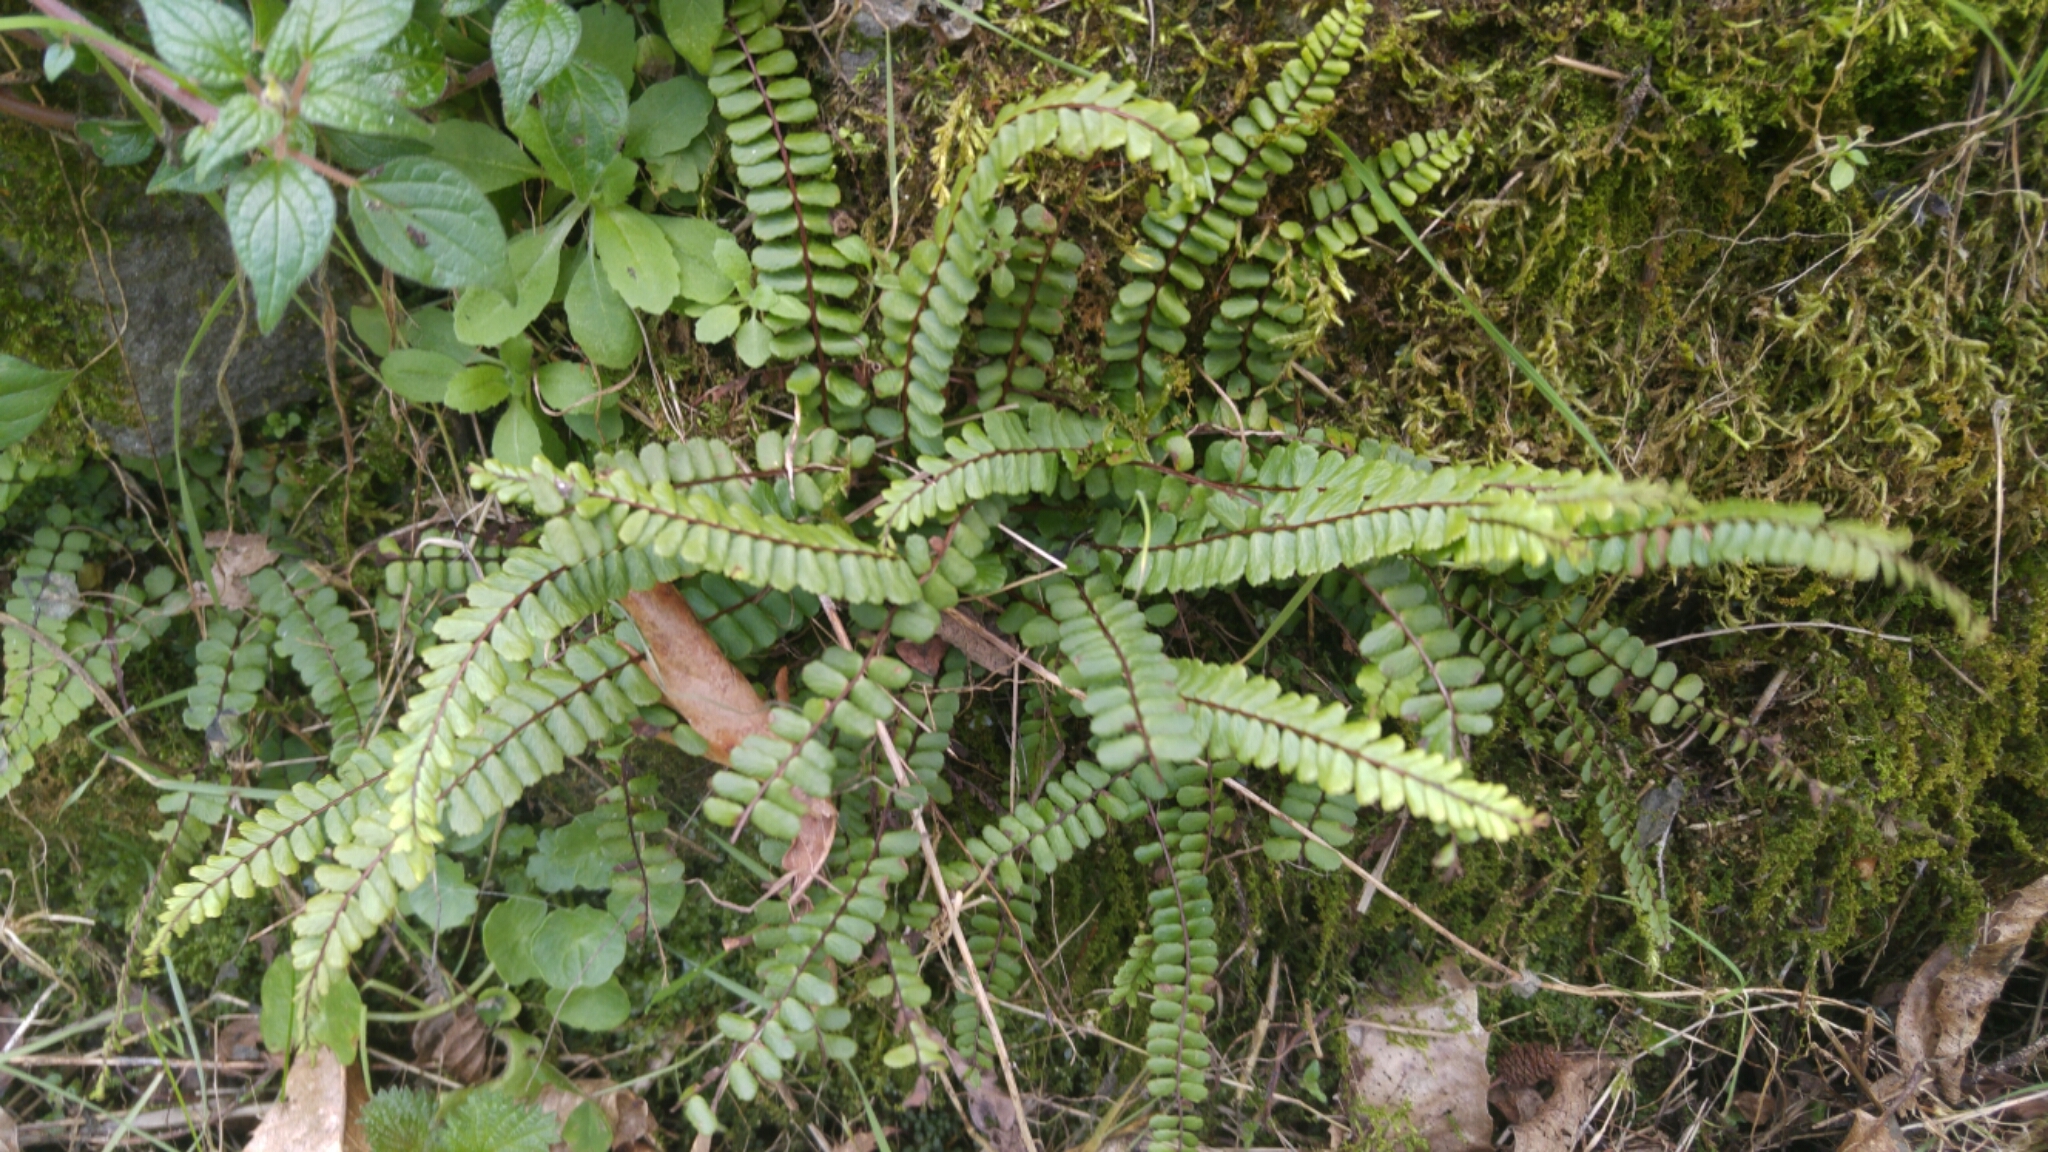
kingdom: Plantae
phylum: Tracheophyta
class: Polypodiopsida
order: Polypodiales
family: Aspleniaceae
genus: Asplenium
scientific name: Asplenium trichomanes
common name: Maidenhair spleenwort
